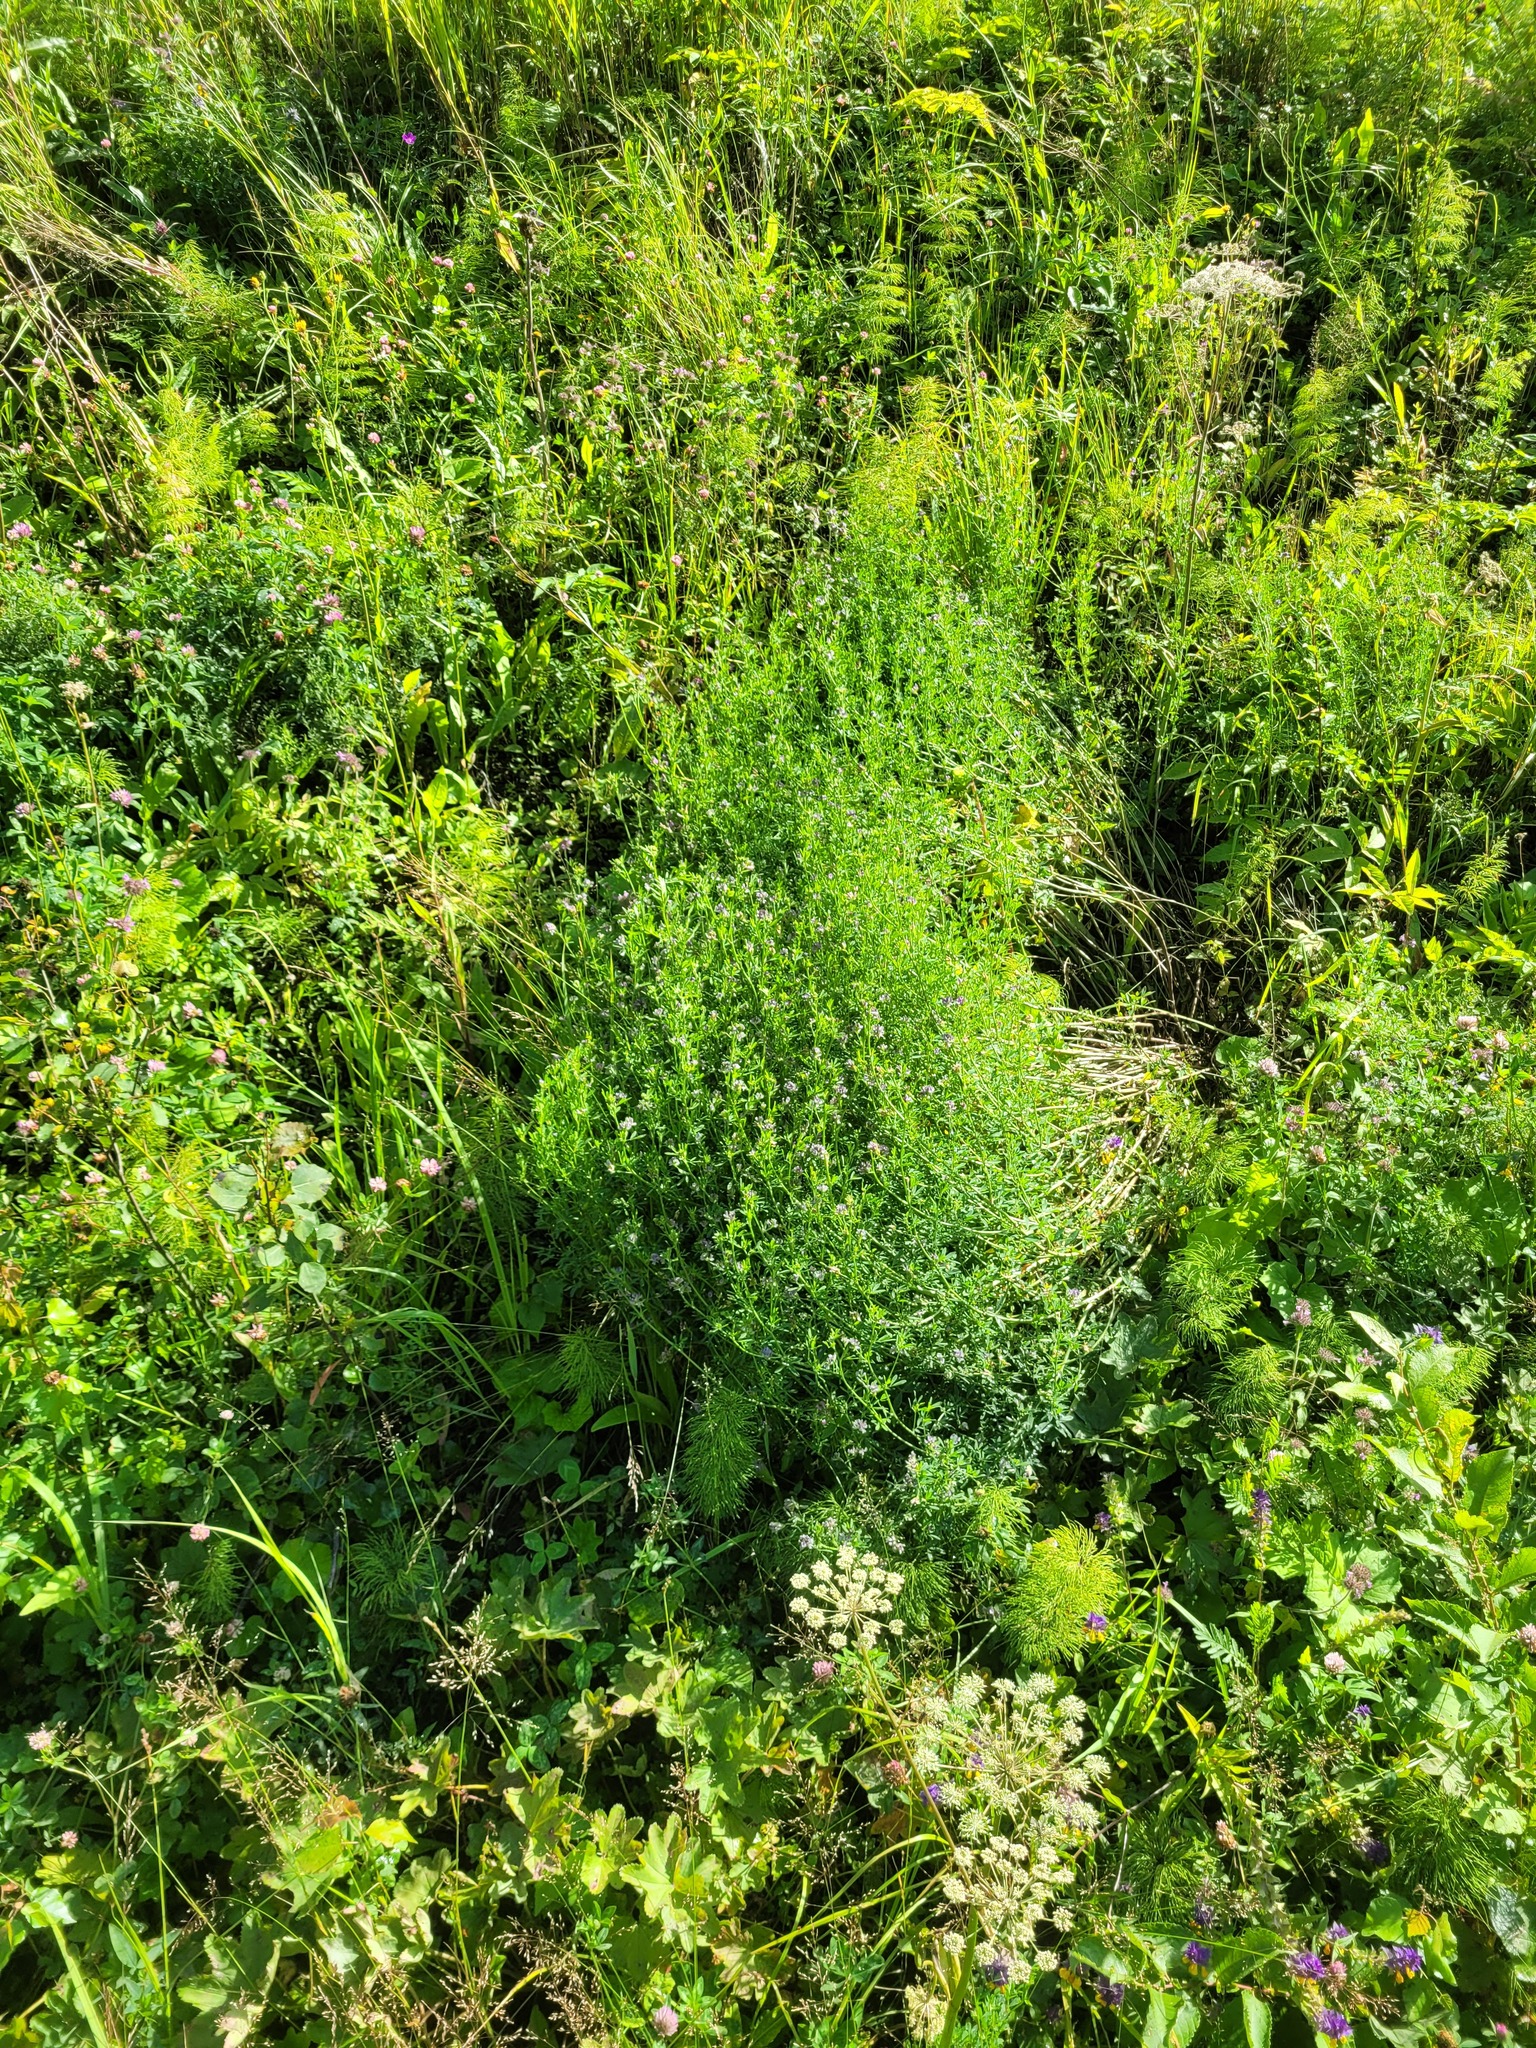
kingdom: Plantae
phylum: Tracheophyta
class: Magnoliopsida
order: Fabales
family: Fabaceae
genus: Medicago
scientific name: Medicago varia
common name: Sand lucerne
